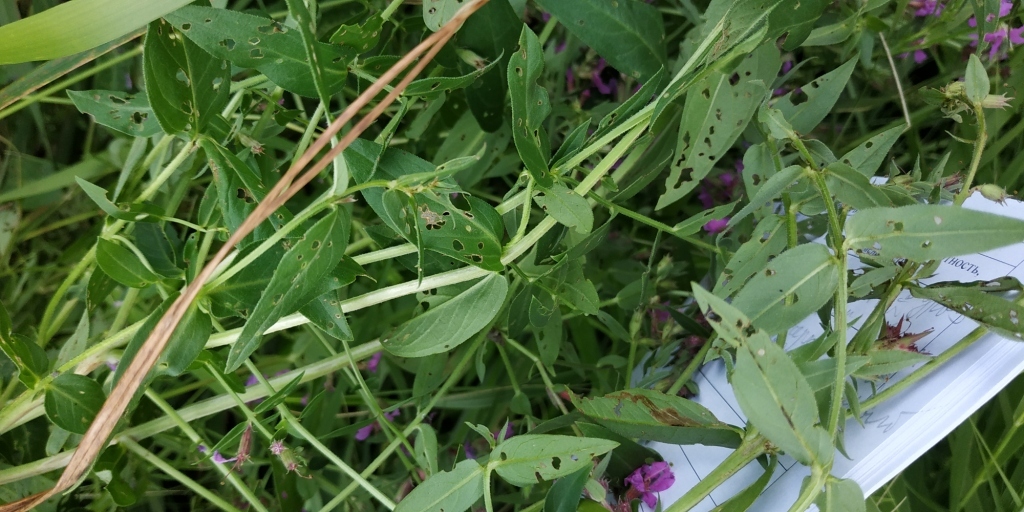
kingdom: Plantae
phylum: Tracheophyta
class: Magnoliopsida
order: Myrtales
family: Lythraceae
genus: Lythrum
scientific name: Lythrum salicaria
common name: Purple loosestrife
